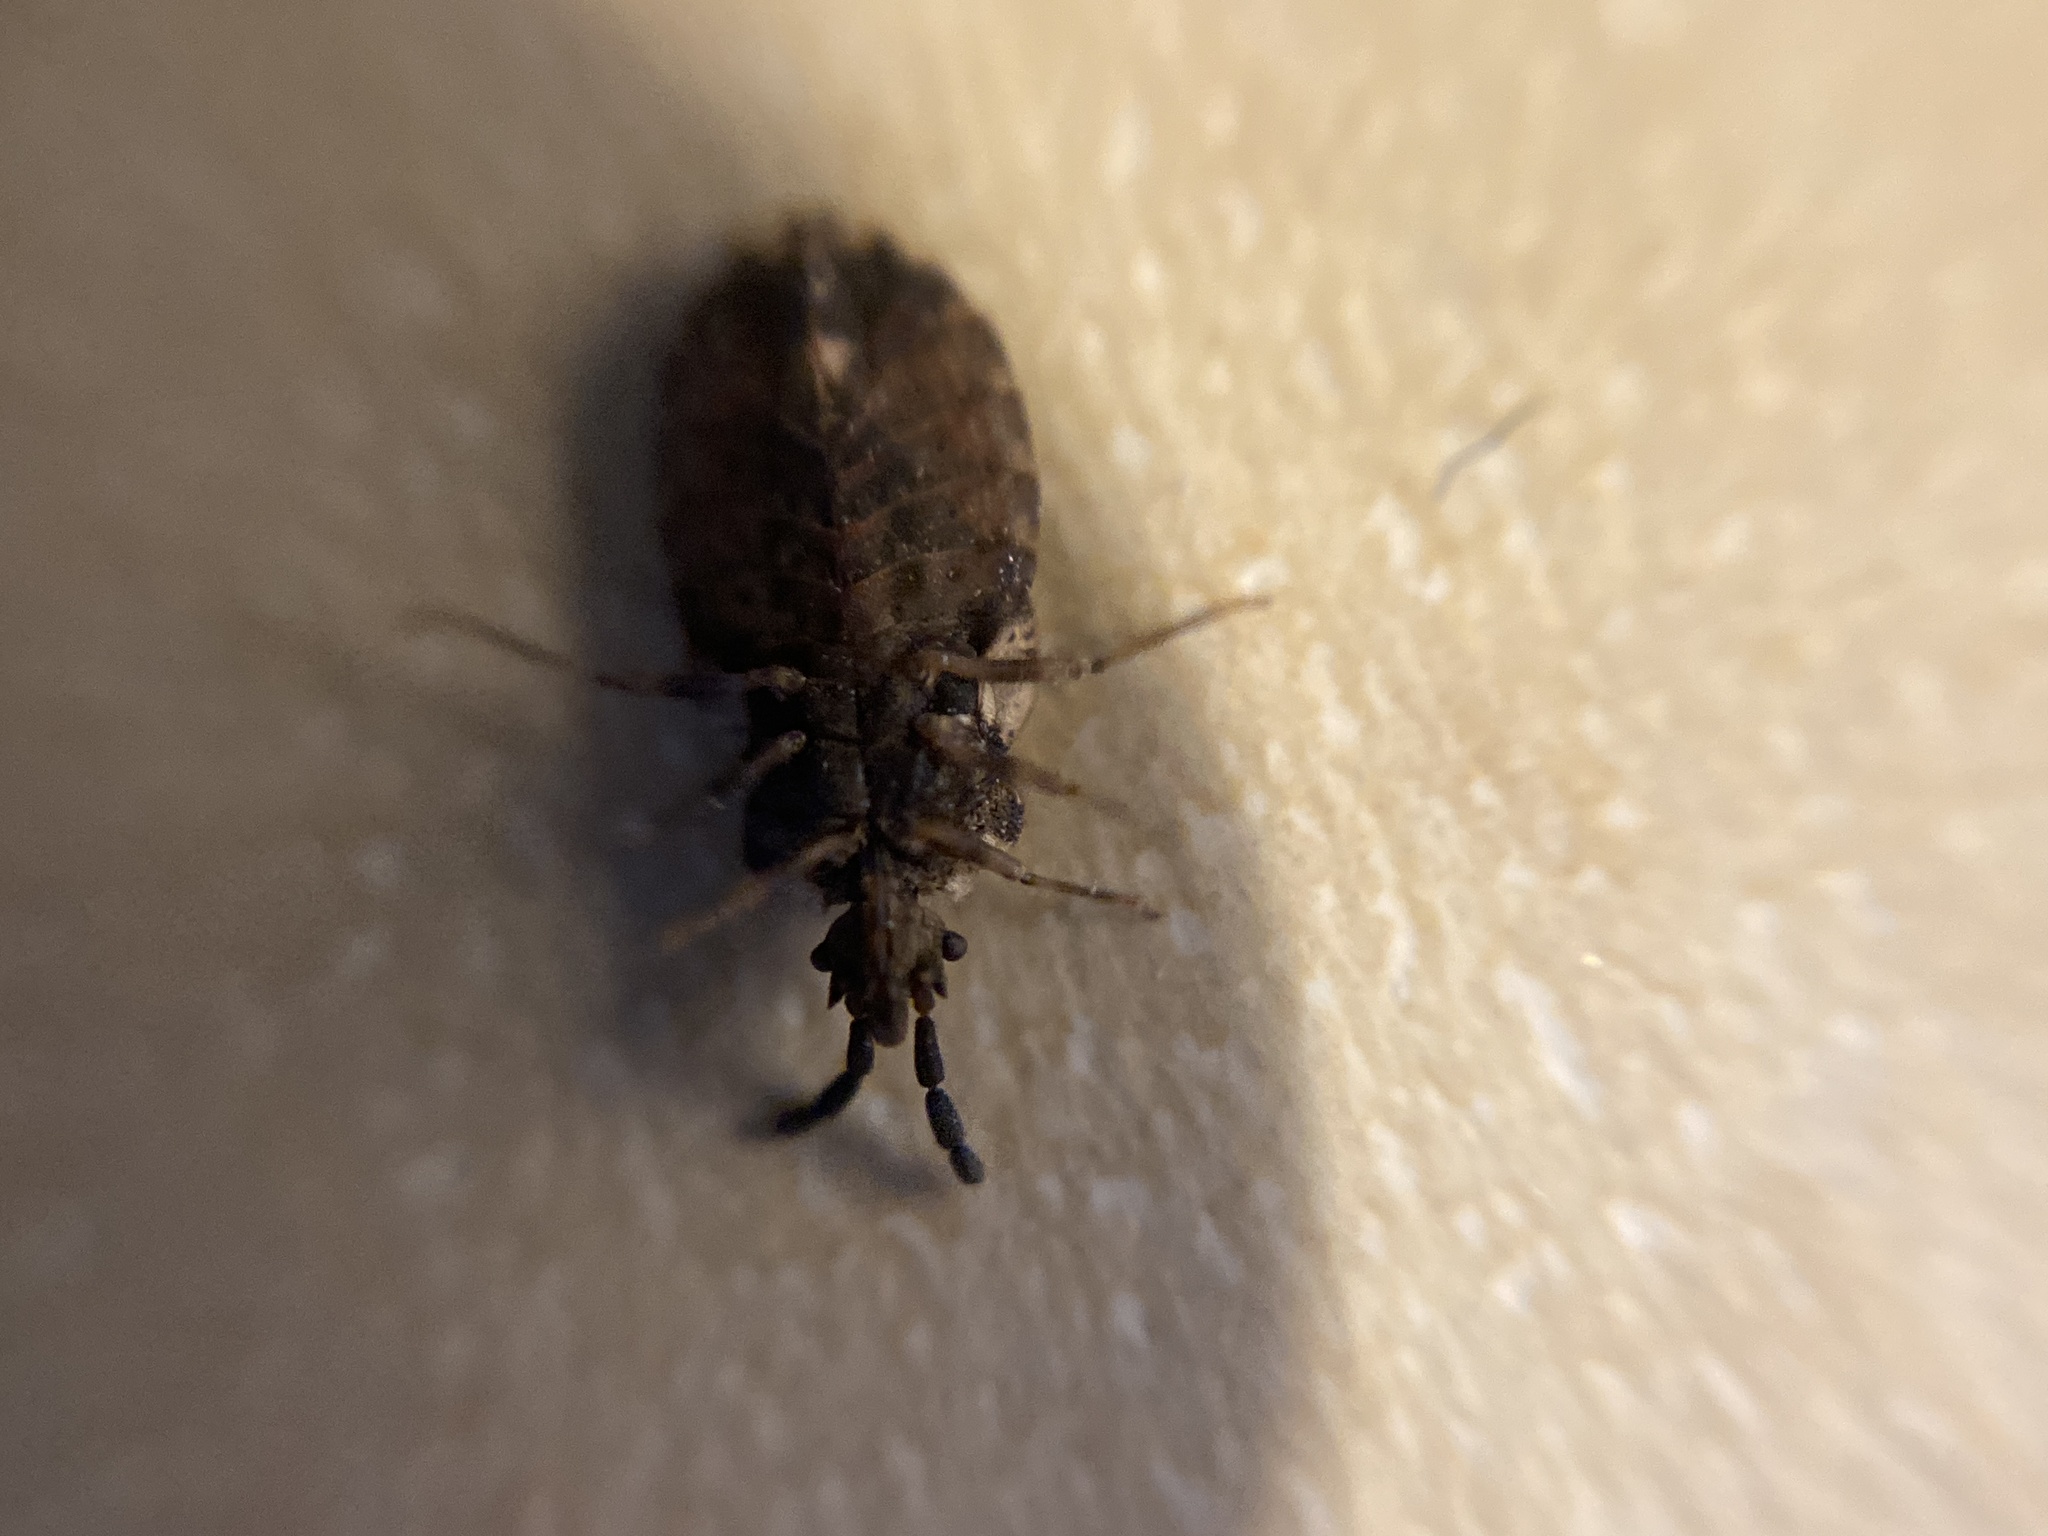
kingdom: Animalia
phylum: Arthropoda
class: Insecta
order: Hemiptera
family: Aradidae
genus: Aradus
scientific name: Aradus depressus
